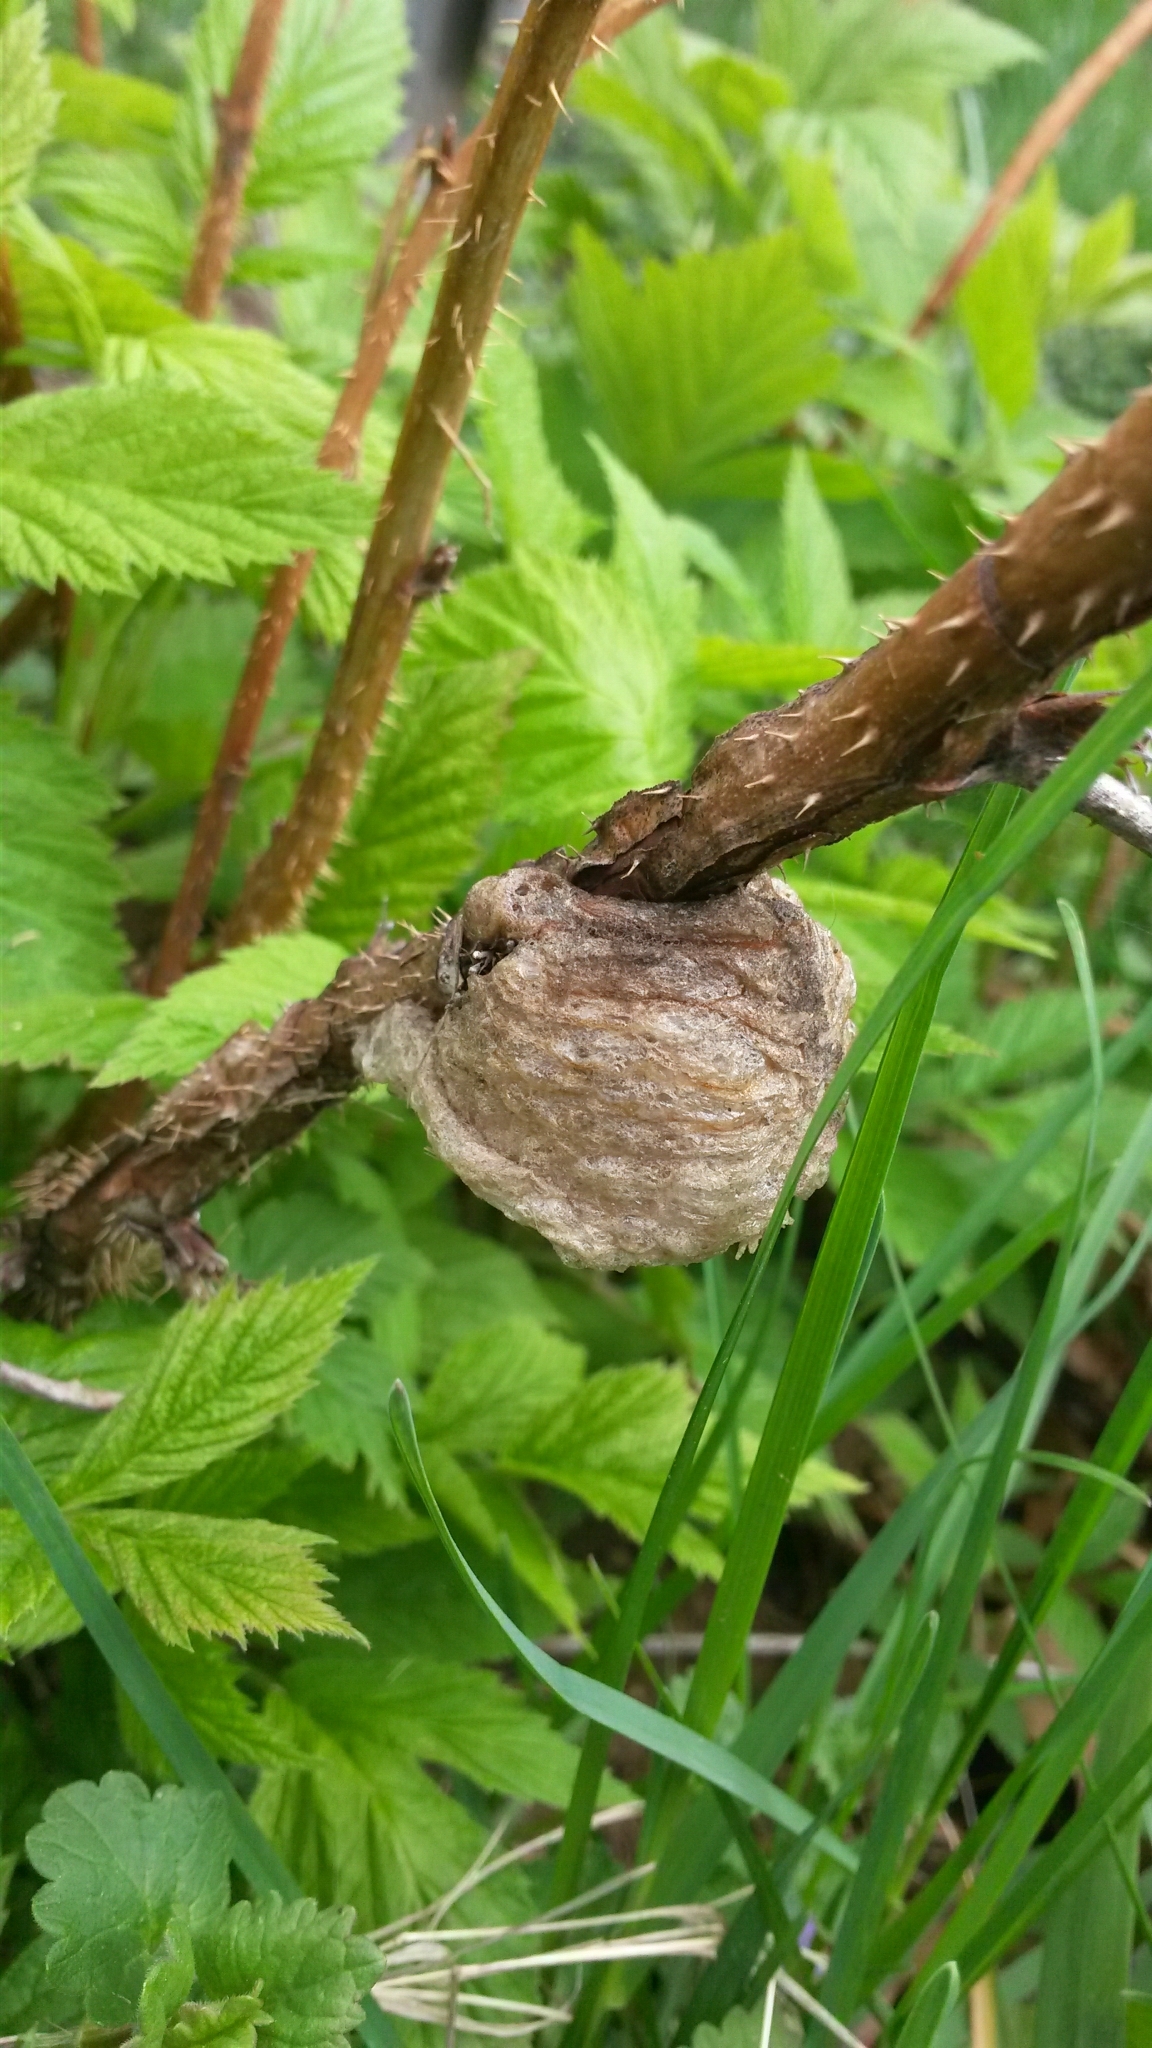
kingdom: Animalia
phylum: Arthropoda
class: Insecta
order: Mantodea
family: Mantidae
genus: Tenodera
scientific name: Tenodera sinensis
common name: Chinese mantis
